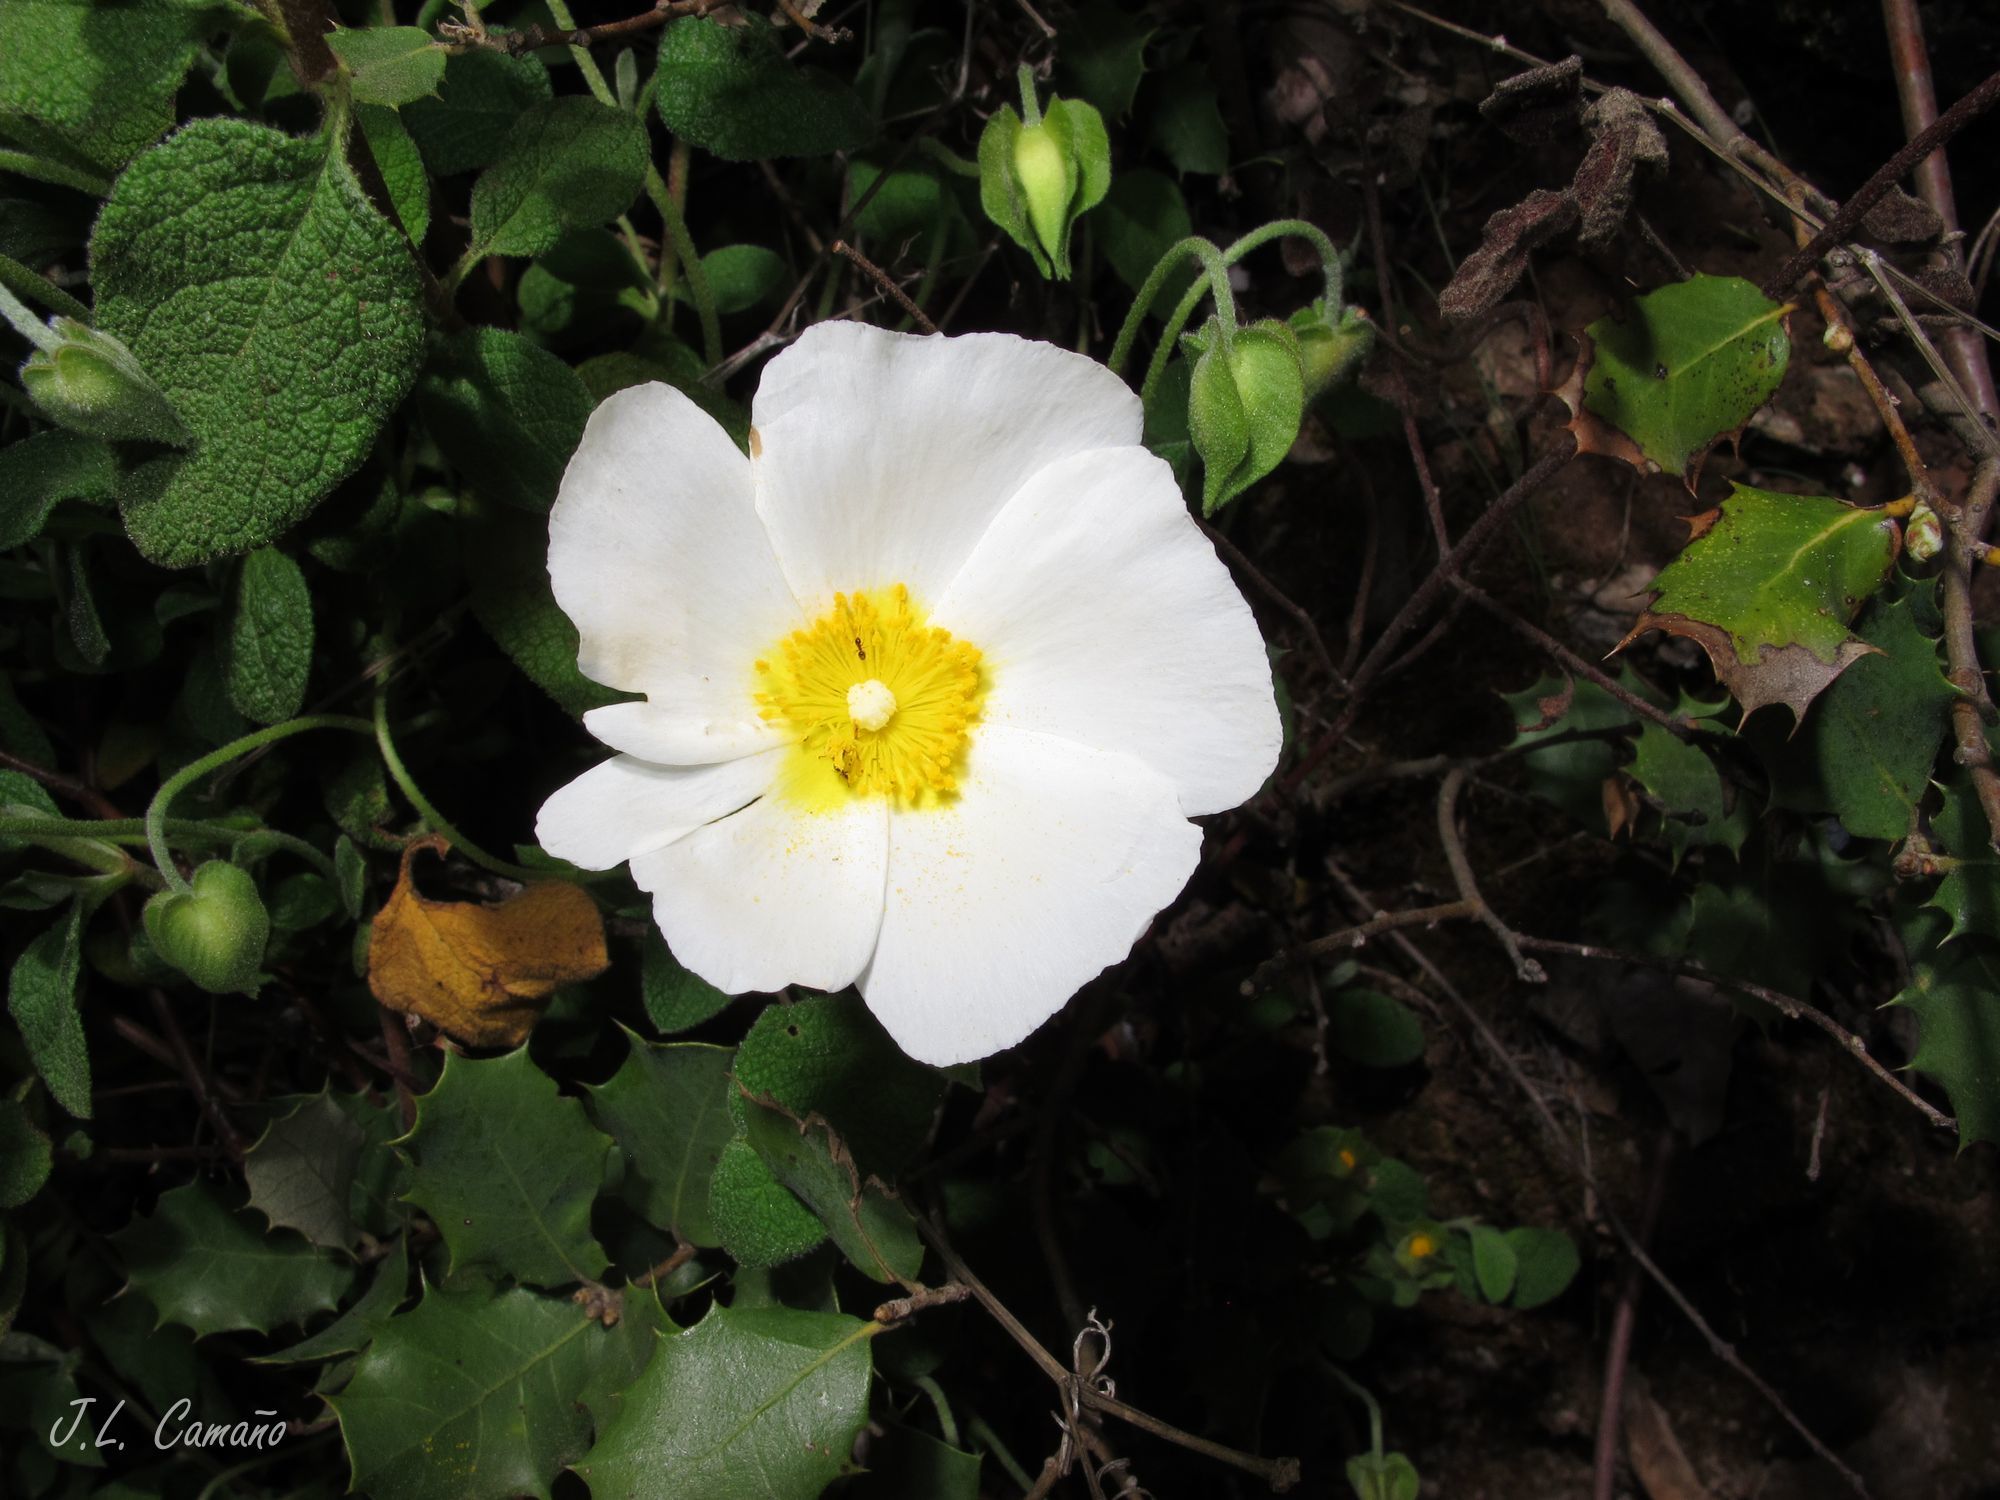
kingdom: Plantae
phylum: Tracheophyta
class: Magnoliopsida
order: Malvales
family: Cistaceae
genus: Cistus
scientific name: Cistus salviifolius
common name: Salvia cistus
